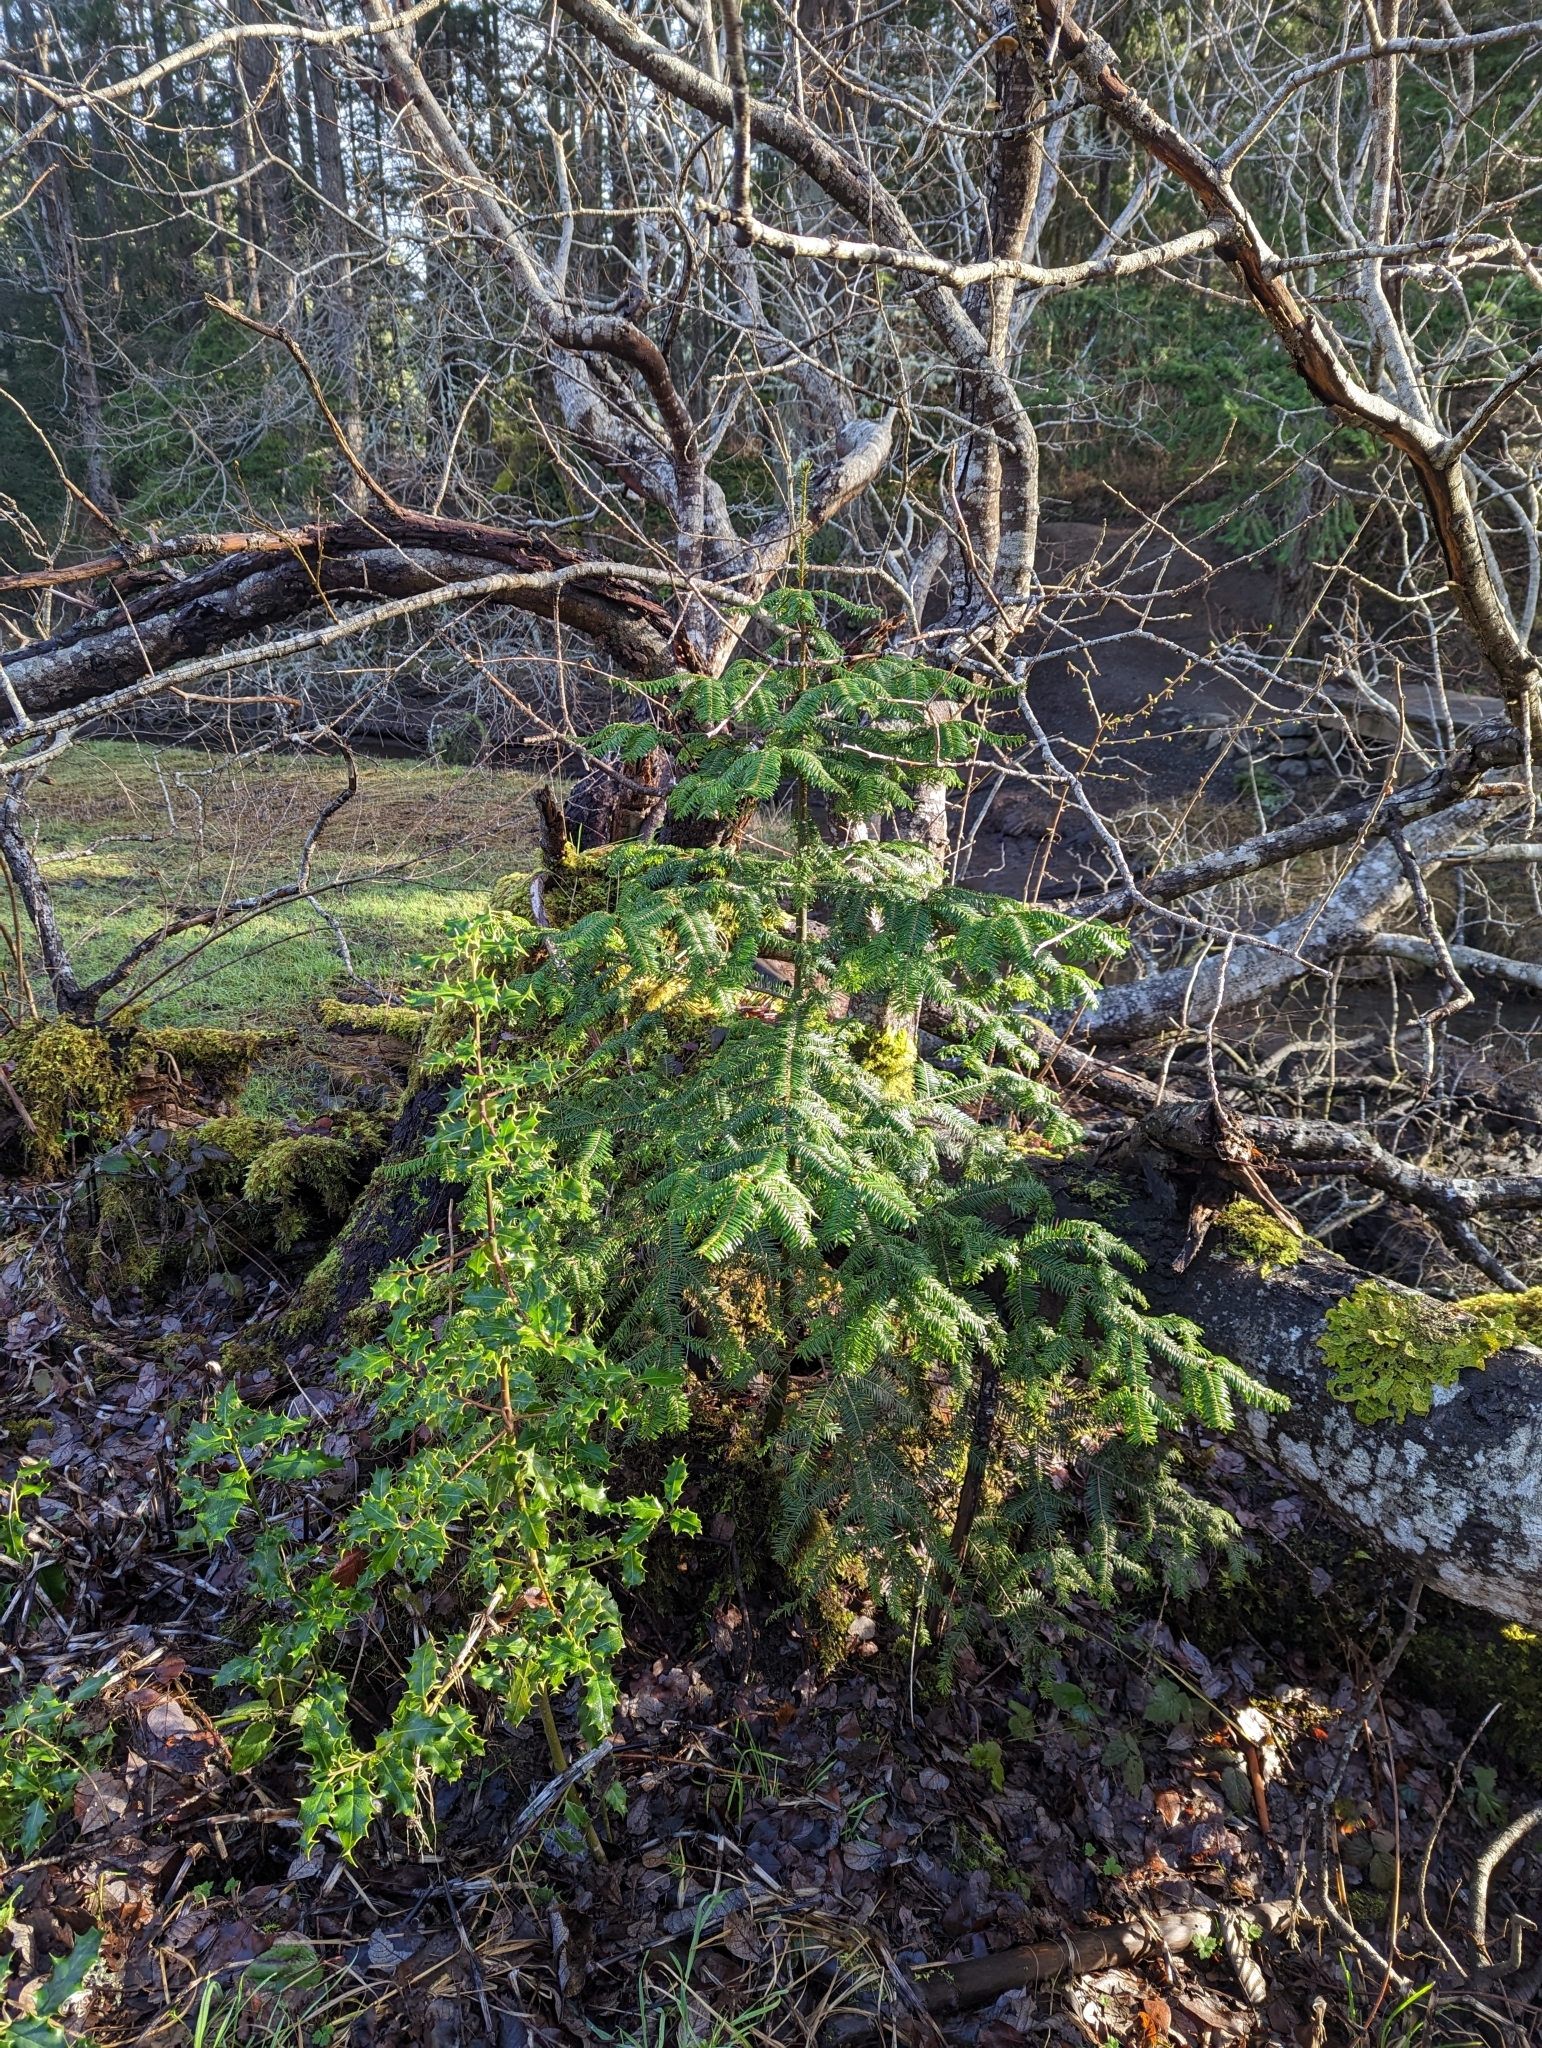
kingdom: Plantae
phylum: Tracheophyta
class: Pinopsida
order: Pinales
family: Pinaceae
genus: Abies
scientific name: Abies grandis
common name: Giant fir
